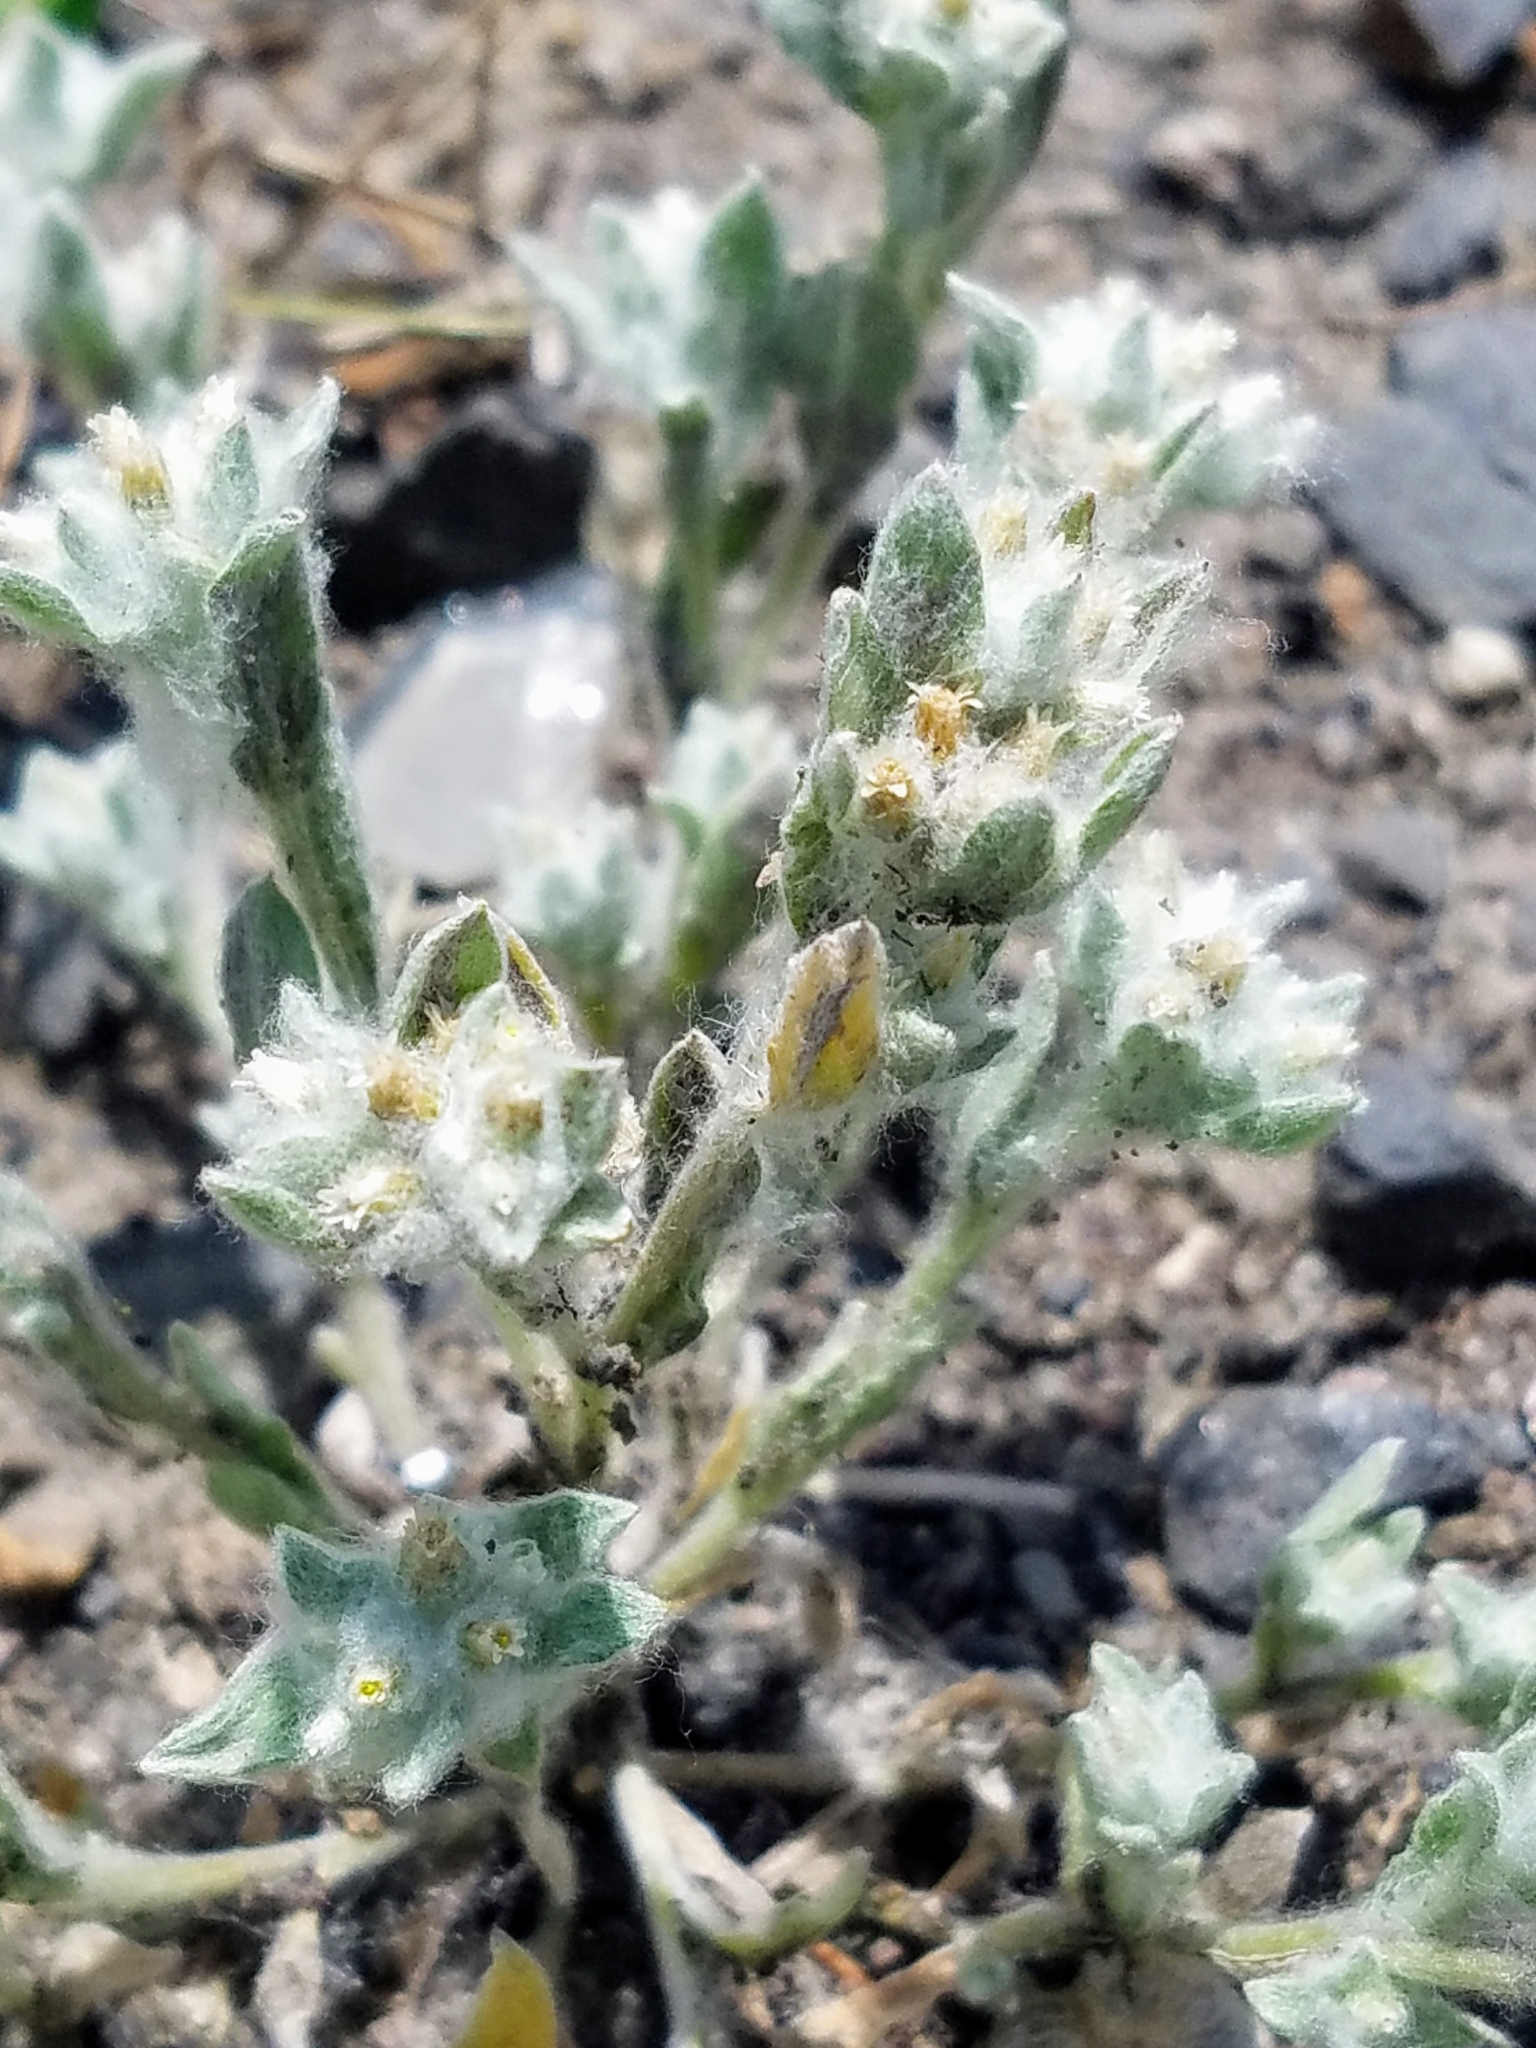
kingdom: Plantae
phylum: Tracheophyta
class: Magnoliopsida
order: Asterales
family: Asteraceae
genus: Gnaphalium
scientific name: Gnaphalium palustre
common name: Western marsh cudweed
